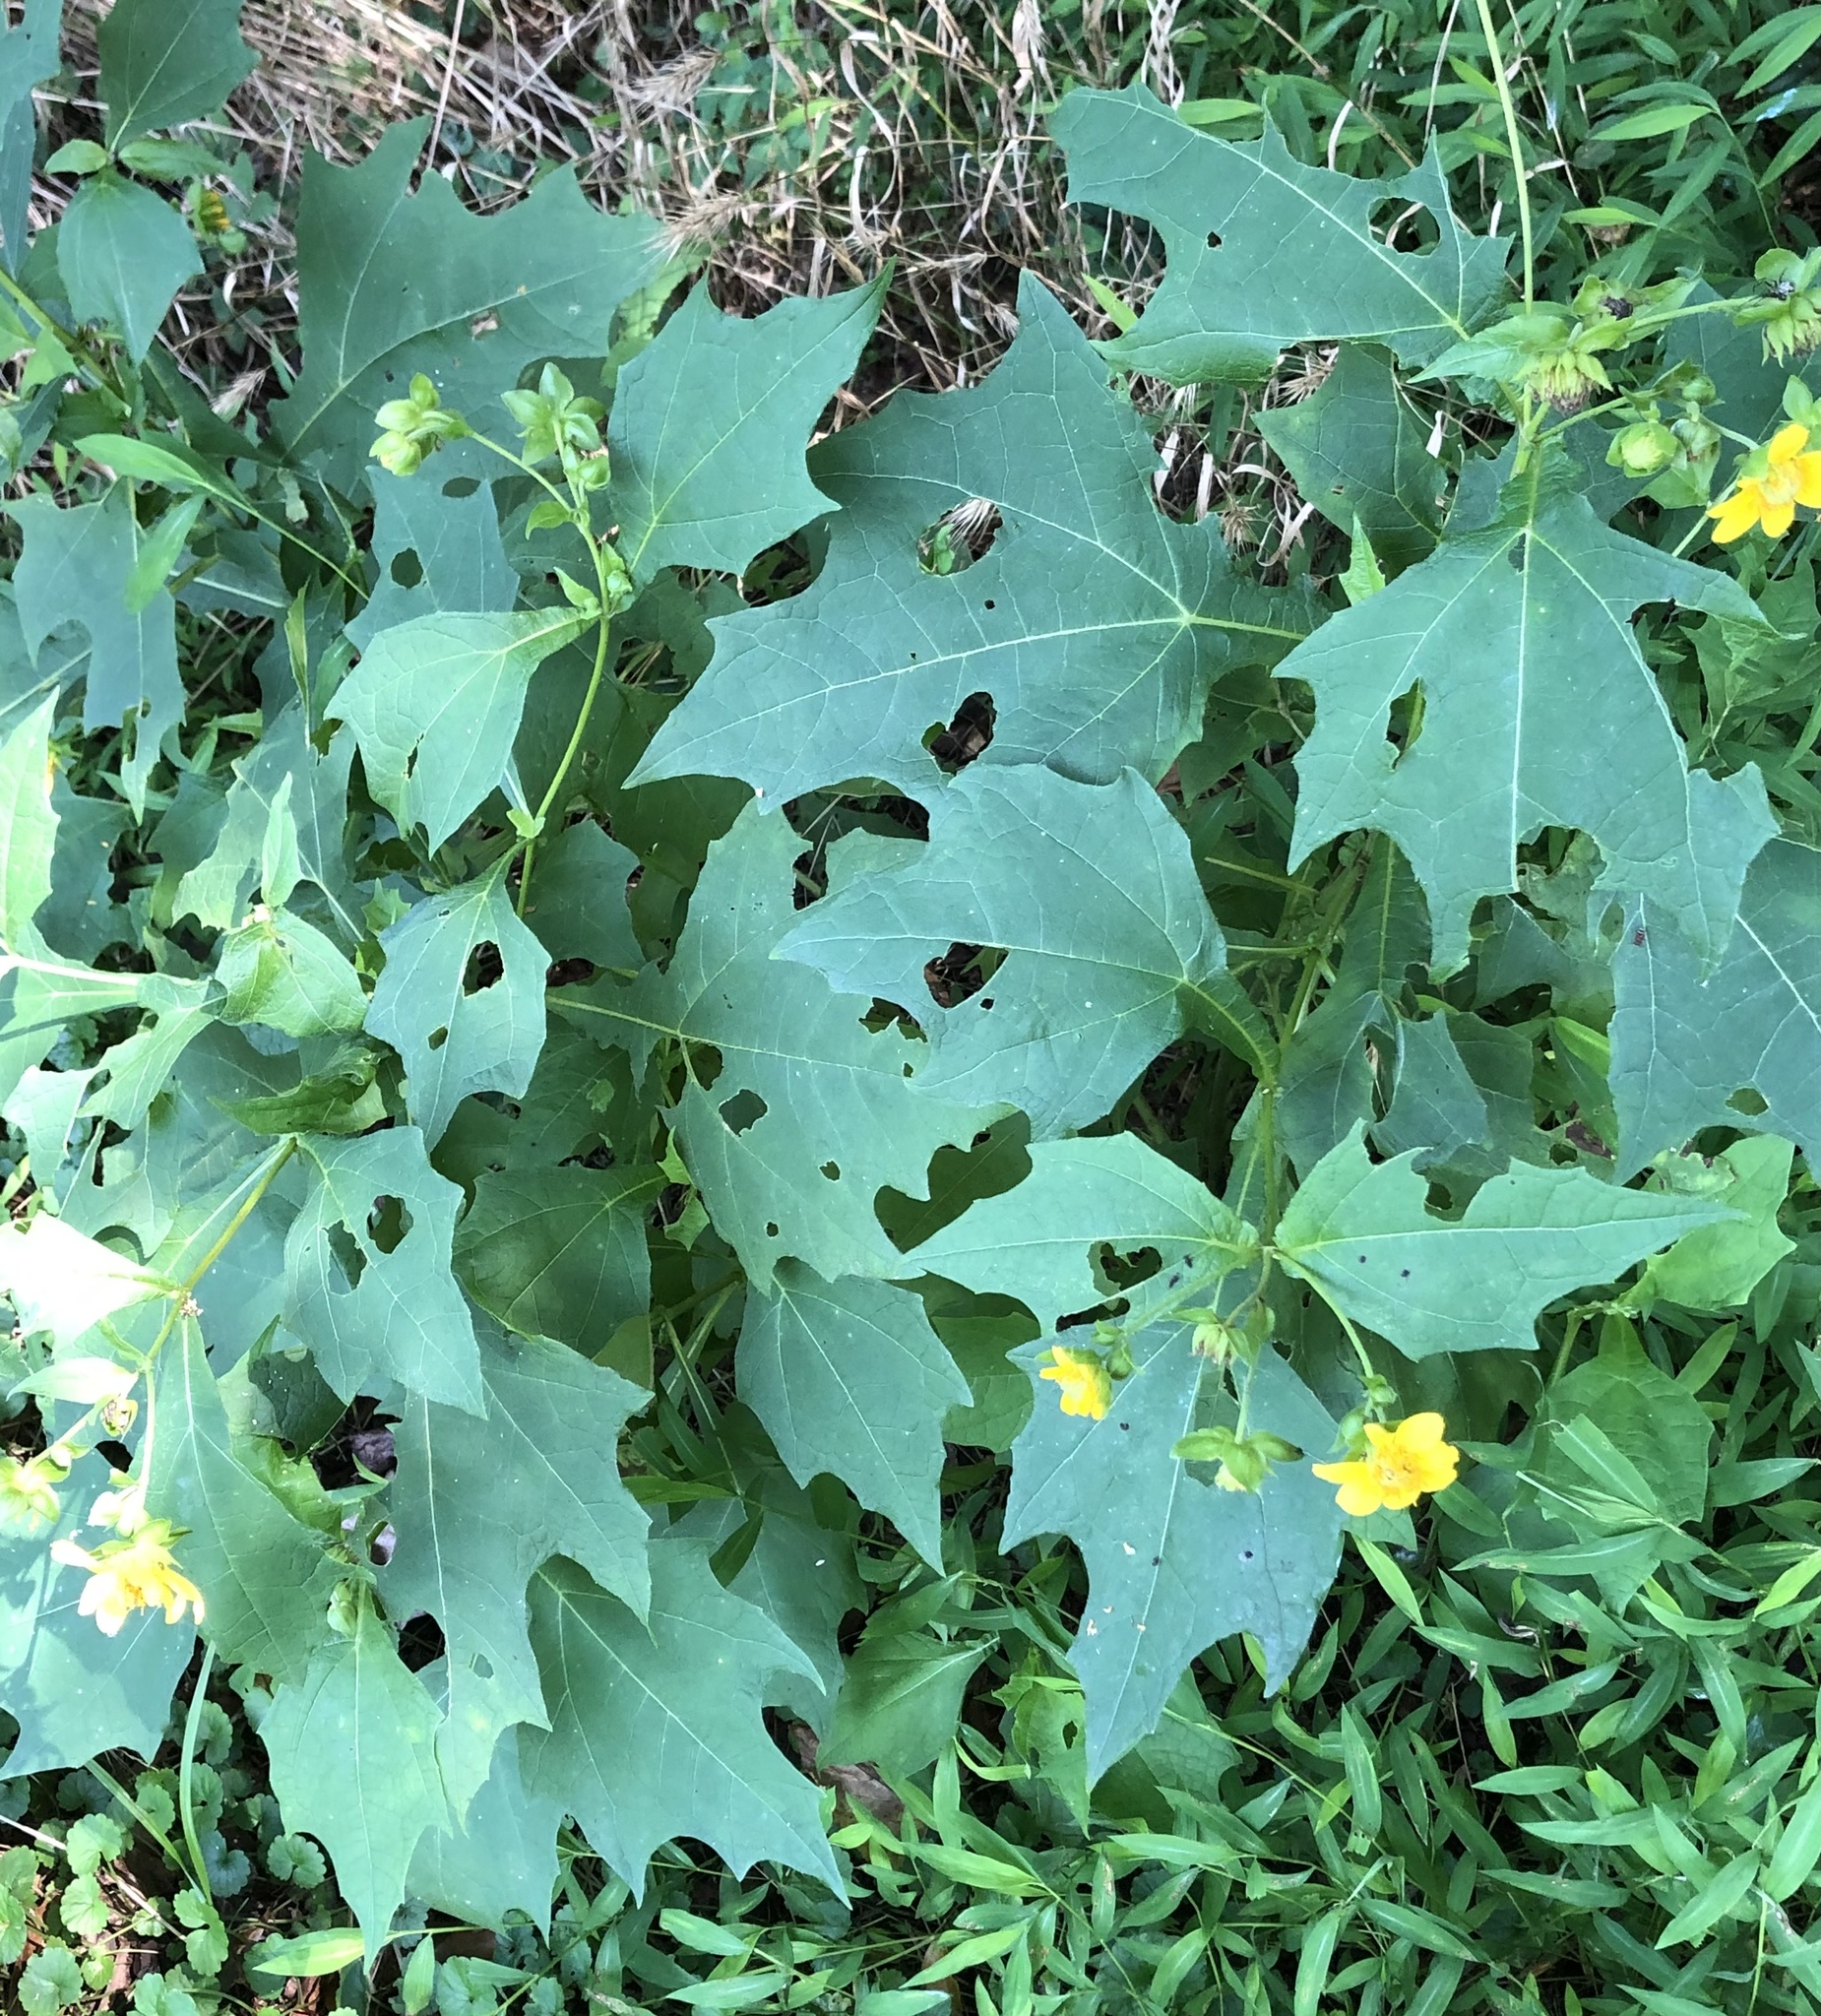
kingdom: Plantae
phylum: Tracheophyta
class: Magnoliopsida
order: Asterales
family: Asteraceae
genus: Smallanthus
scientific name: Smallanthus uvedalia
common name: Bear's-foot
